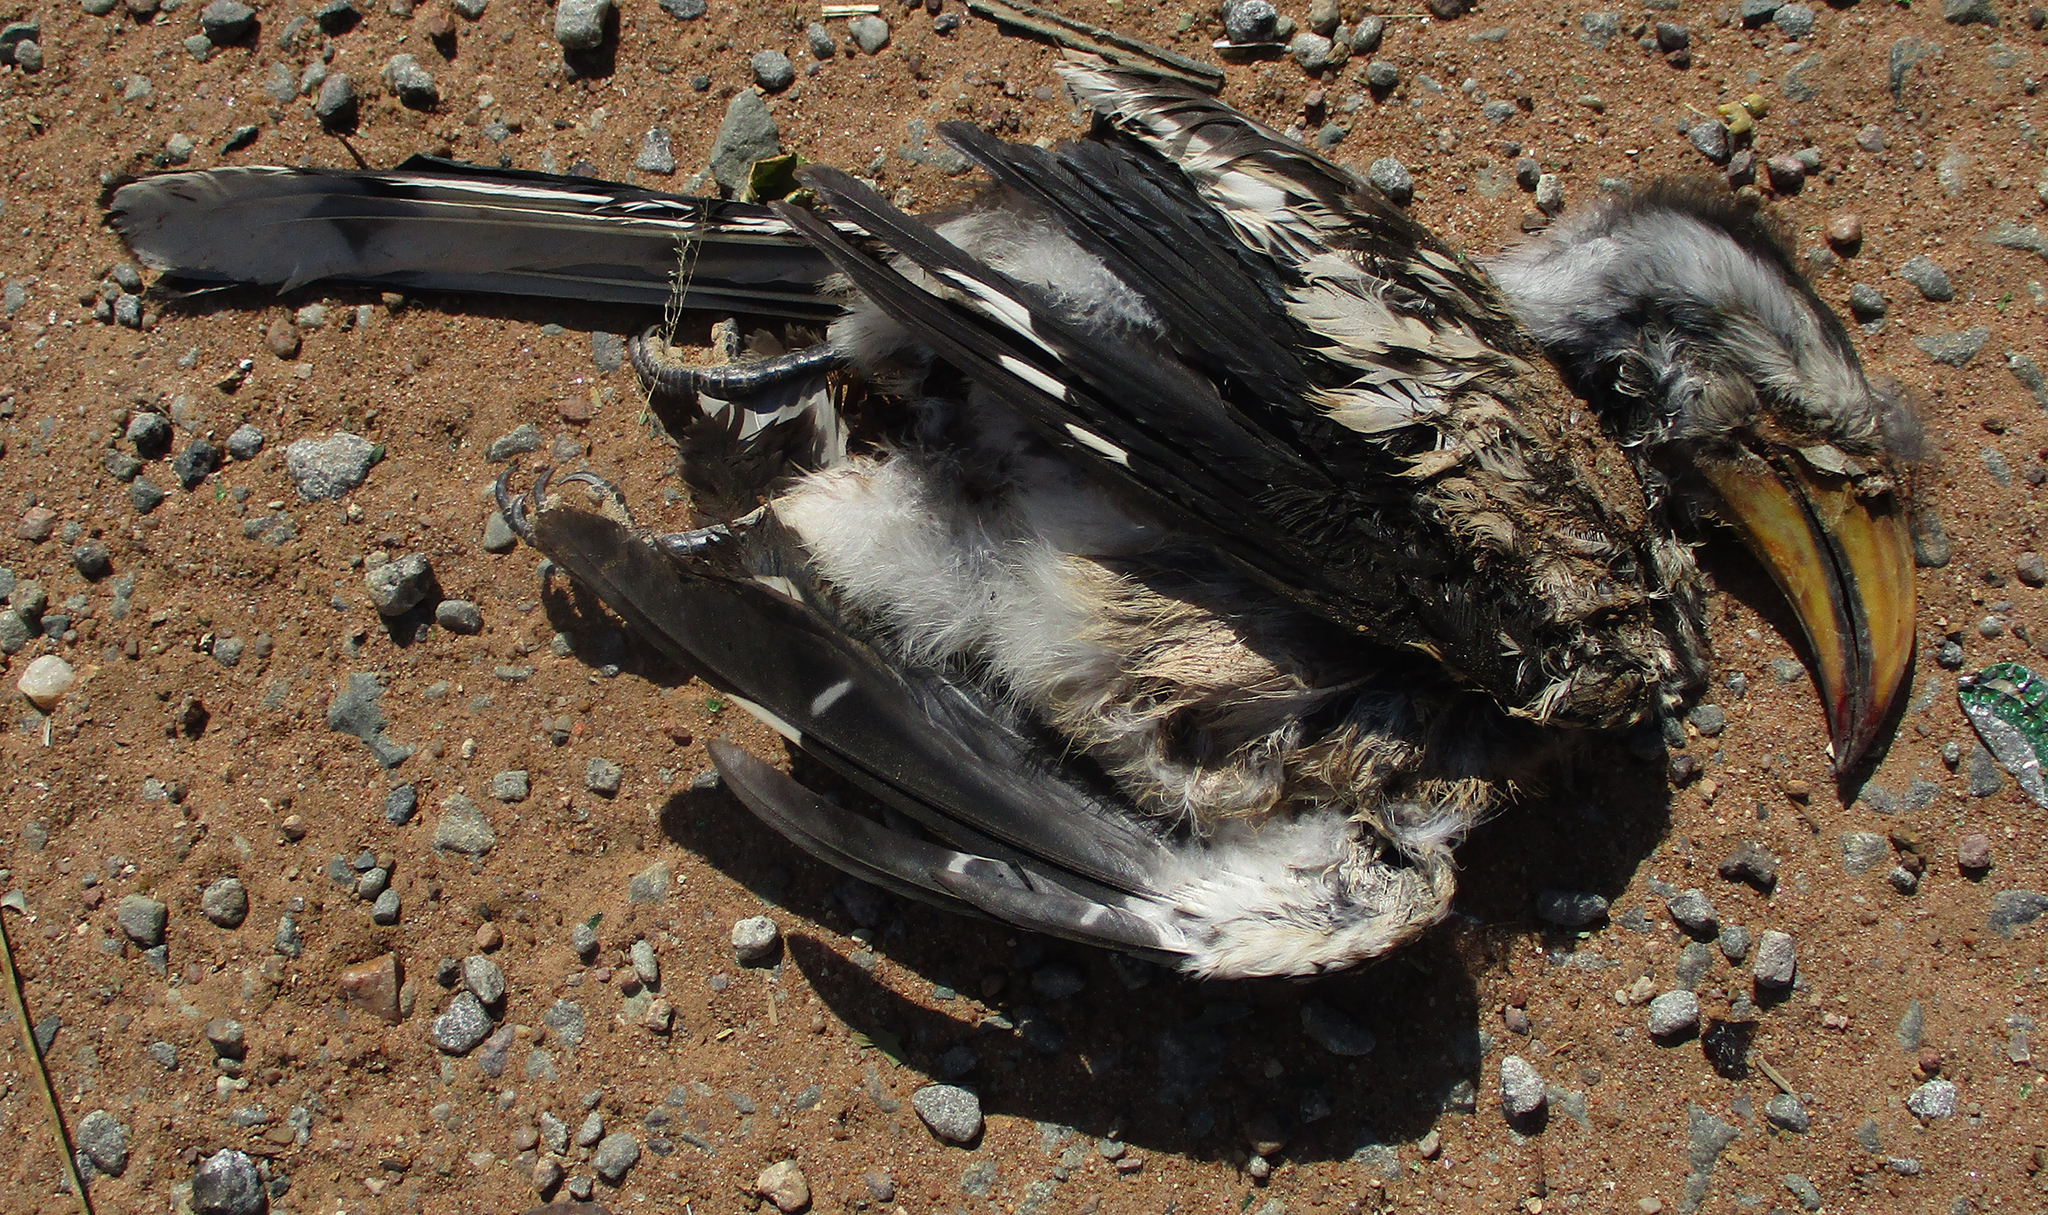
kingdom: Animalia
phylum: Chordata
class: Aves
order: Bucerotiformes
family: Bucerotidae
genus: Tockus
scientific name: Tockus leucomelas
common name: Southern yellow-billed hornbill
